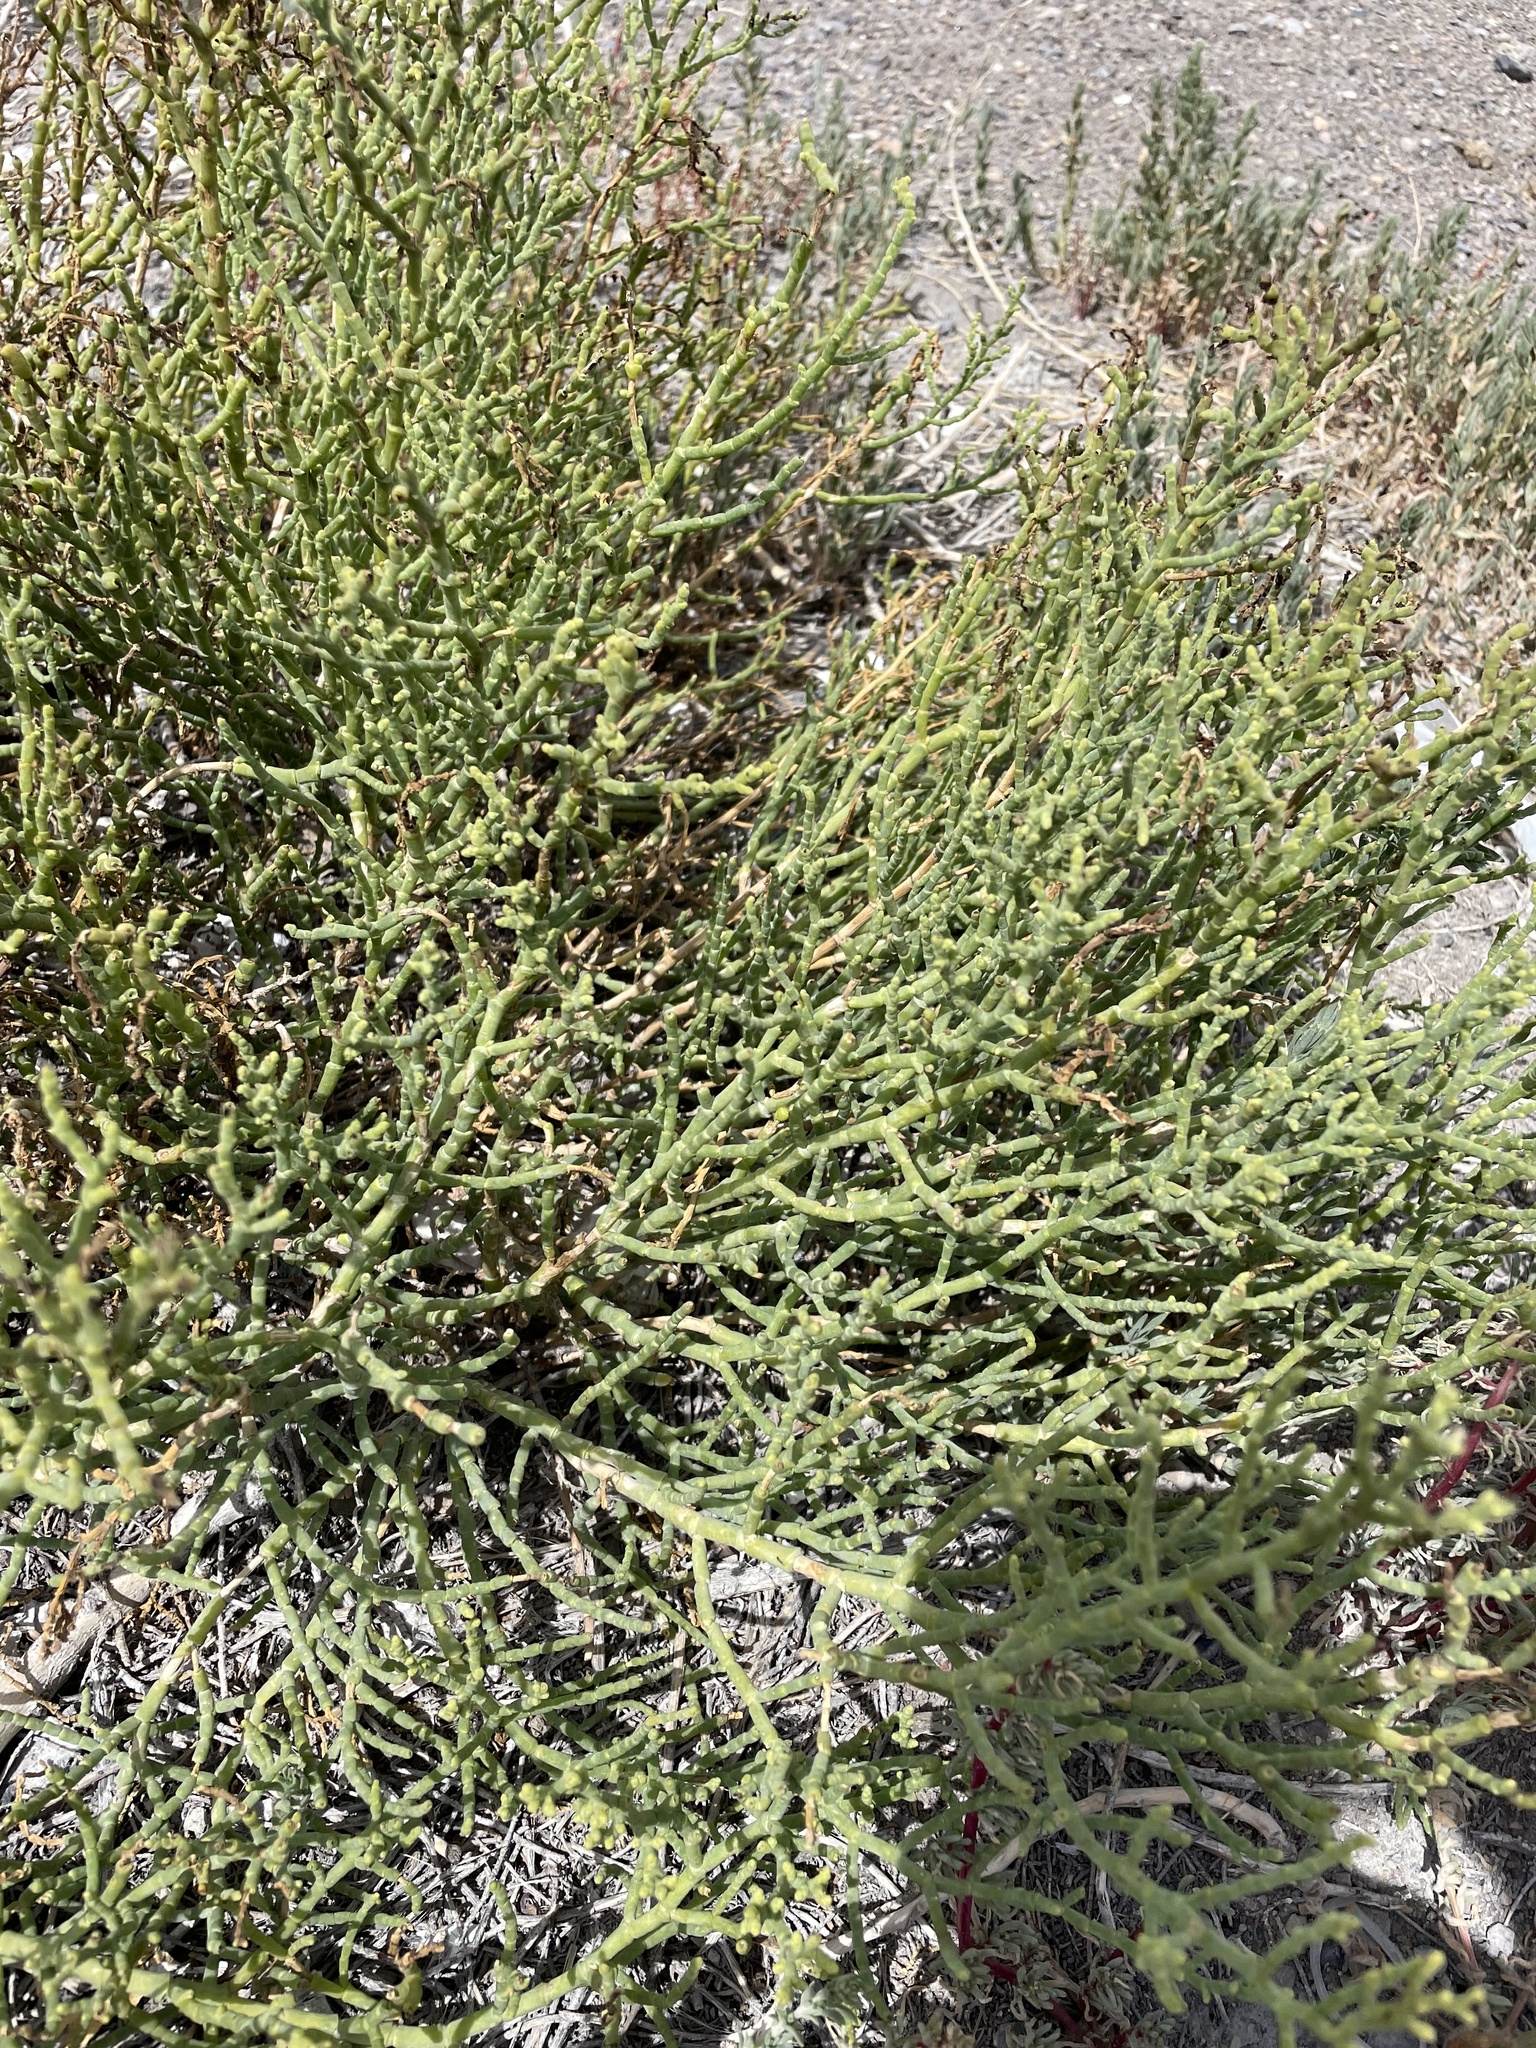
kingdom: Plantae
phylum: Tracheophyta
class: Magnoliopsida
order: Caryophyllales
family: Amaranthaceae
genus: Allenrolfea
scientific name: Allenrolfea occidentalis
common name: Iodine-bush
